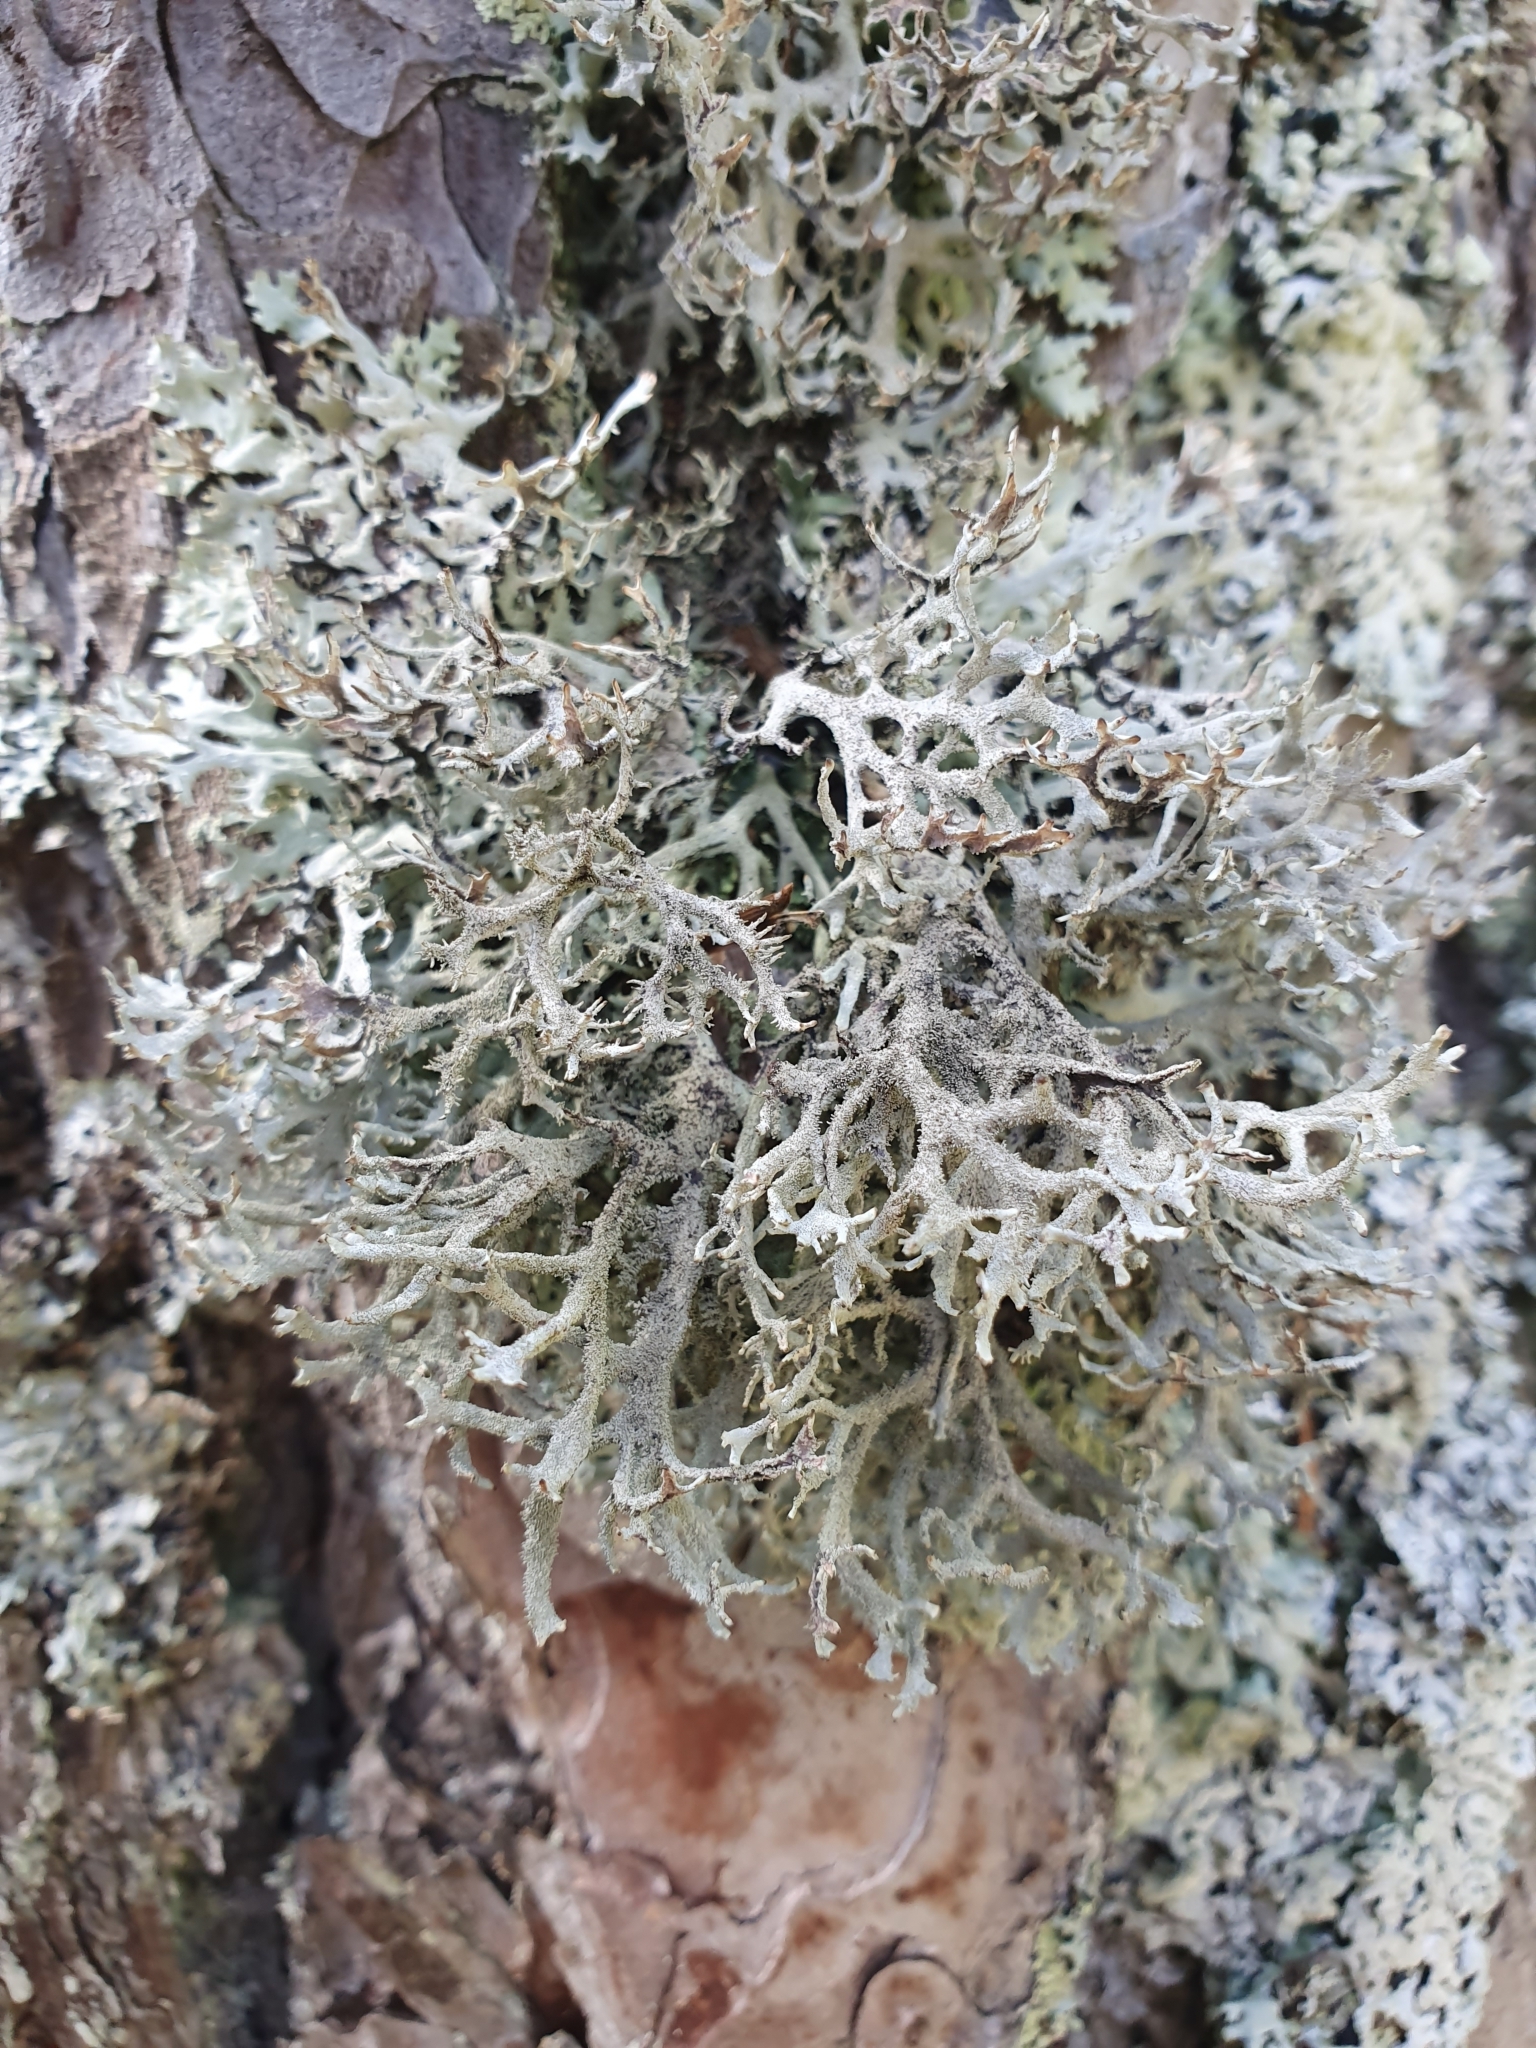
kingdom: Fungi
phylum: Ascomycota
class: Lecanoromycetes
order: Lecanorales
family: Parmeliaceae
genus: Pseudevernia
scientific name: Pseudevernia furfuracea
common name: Tree moss
